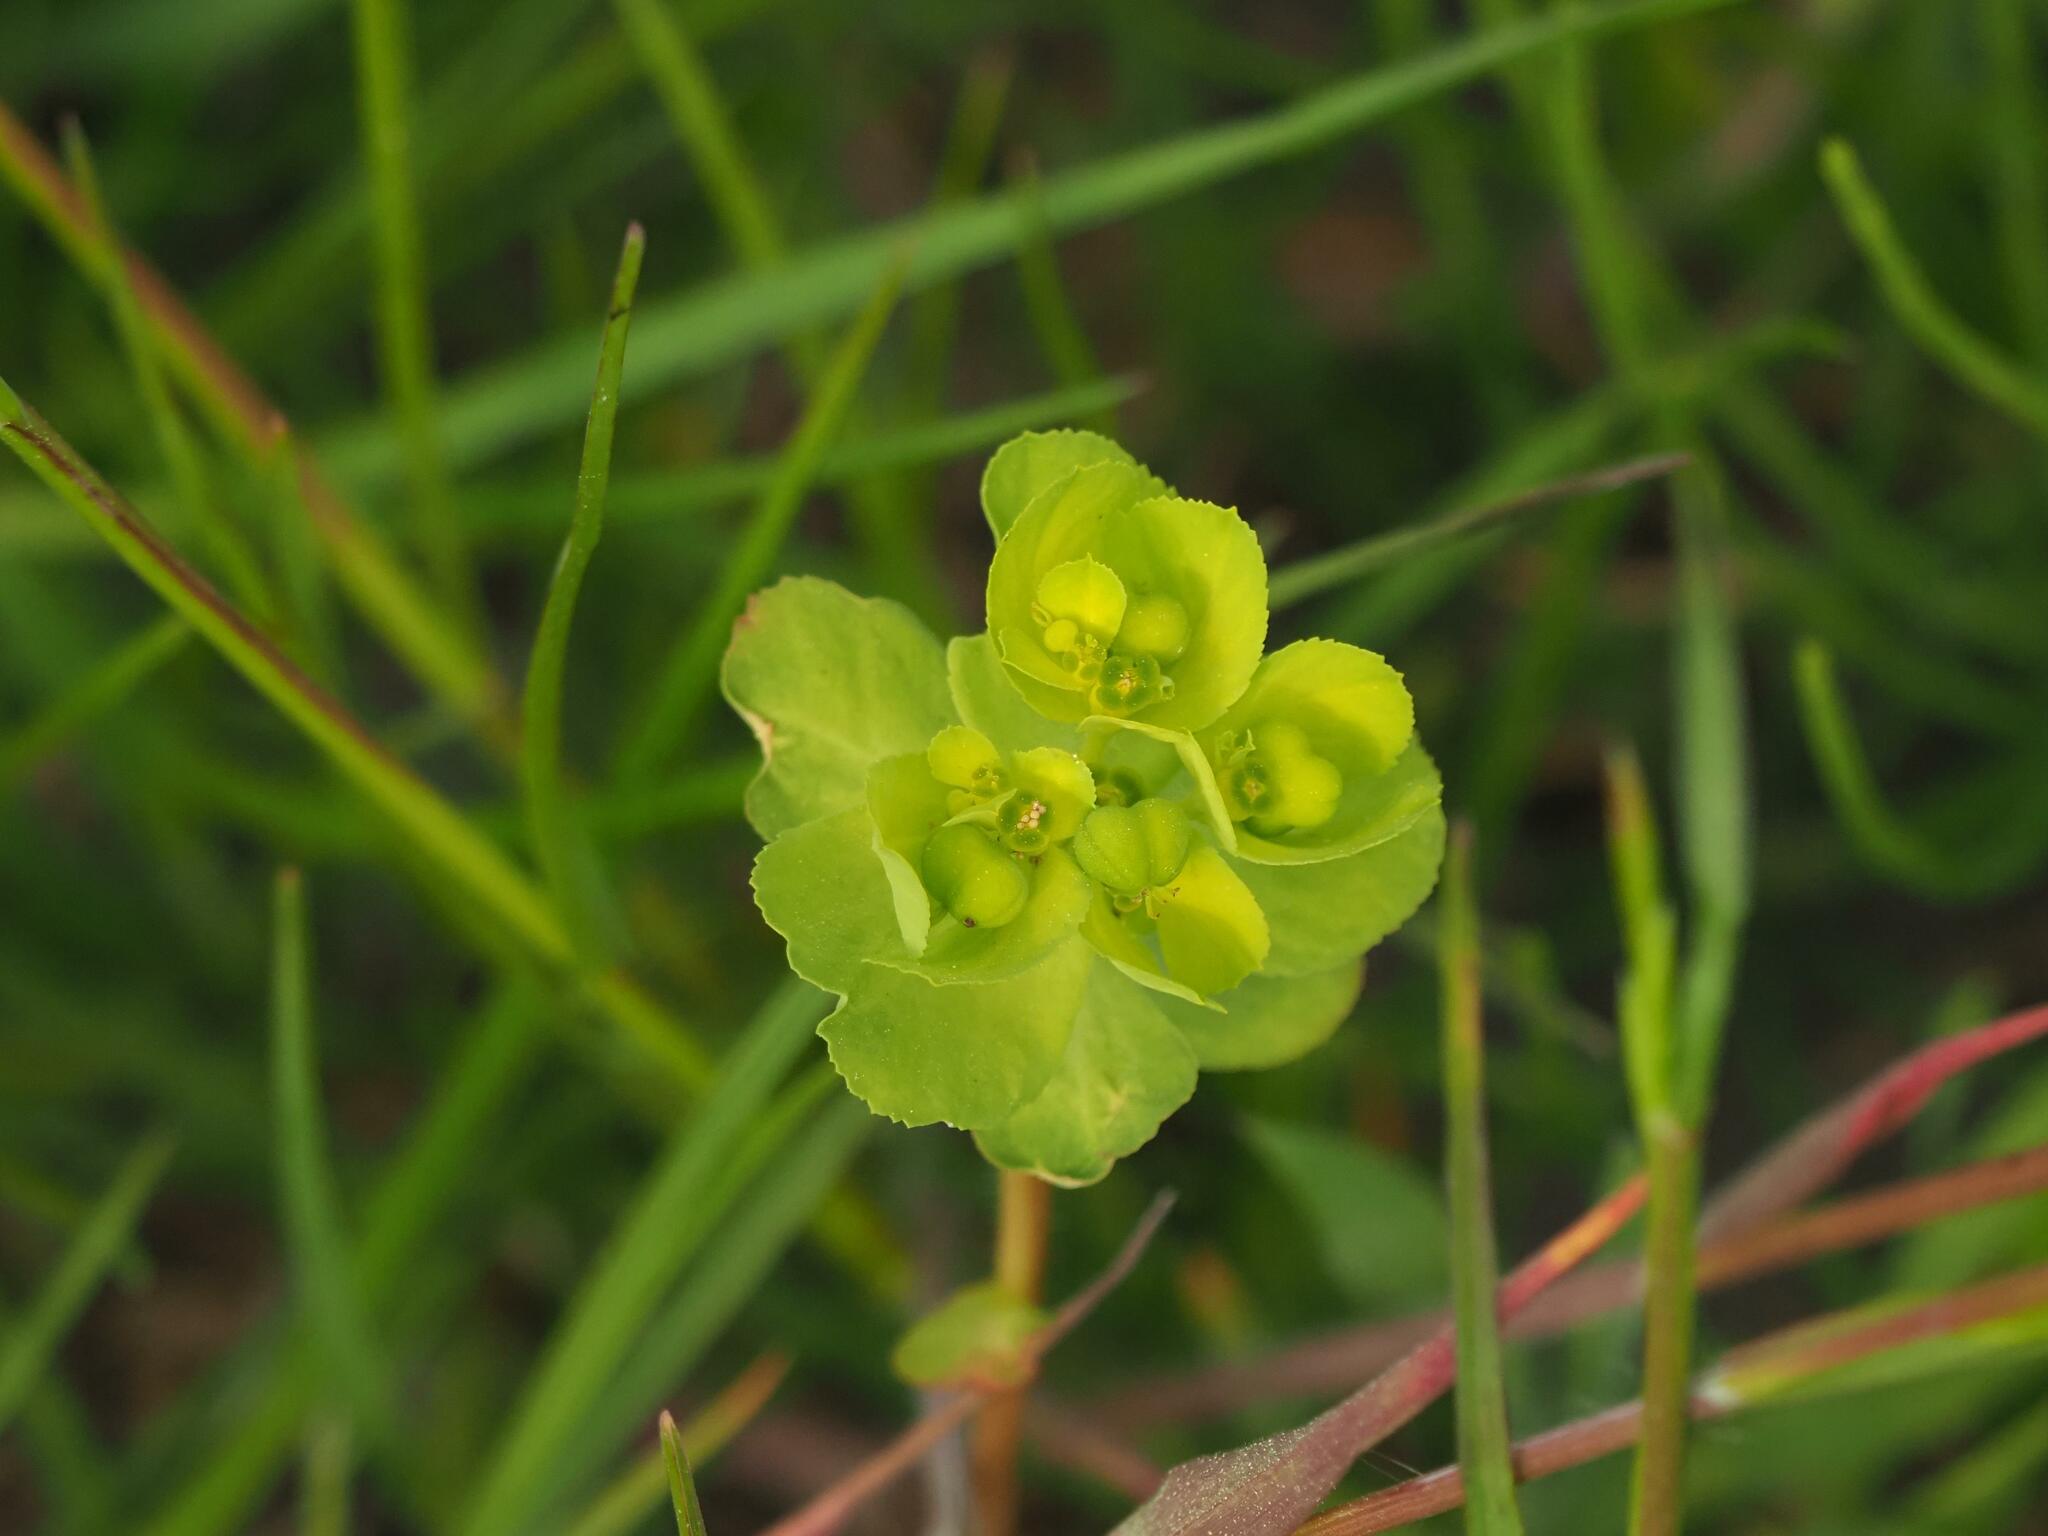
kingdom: Plantae
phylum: Tracheophyta
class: Magnoliopsida
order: Malpighiales
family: Euphorbiaceae
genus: Euphorbia
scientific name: Euphorbia helioscopia
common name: Sun spurge
